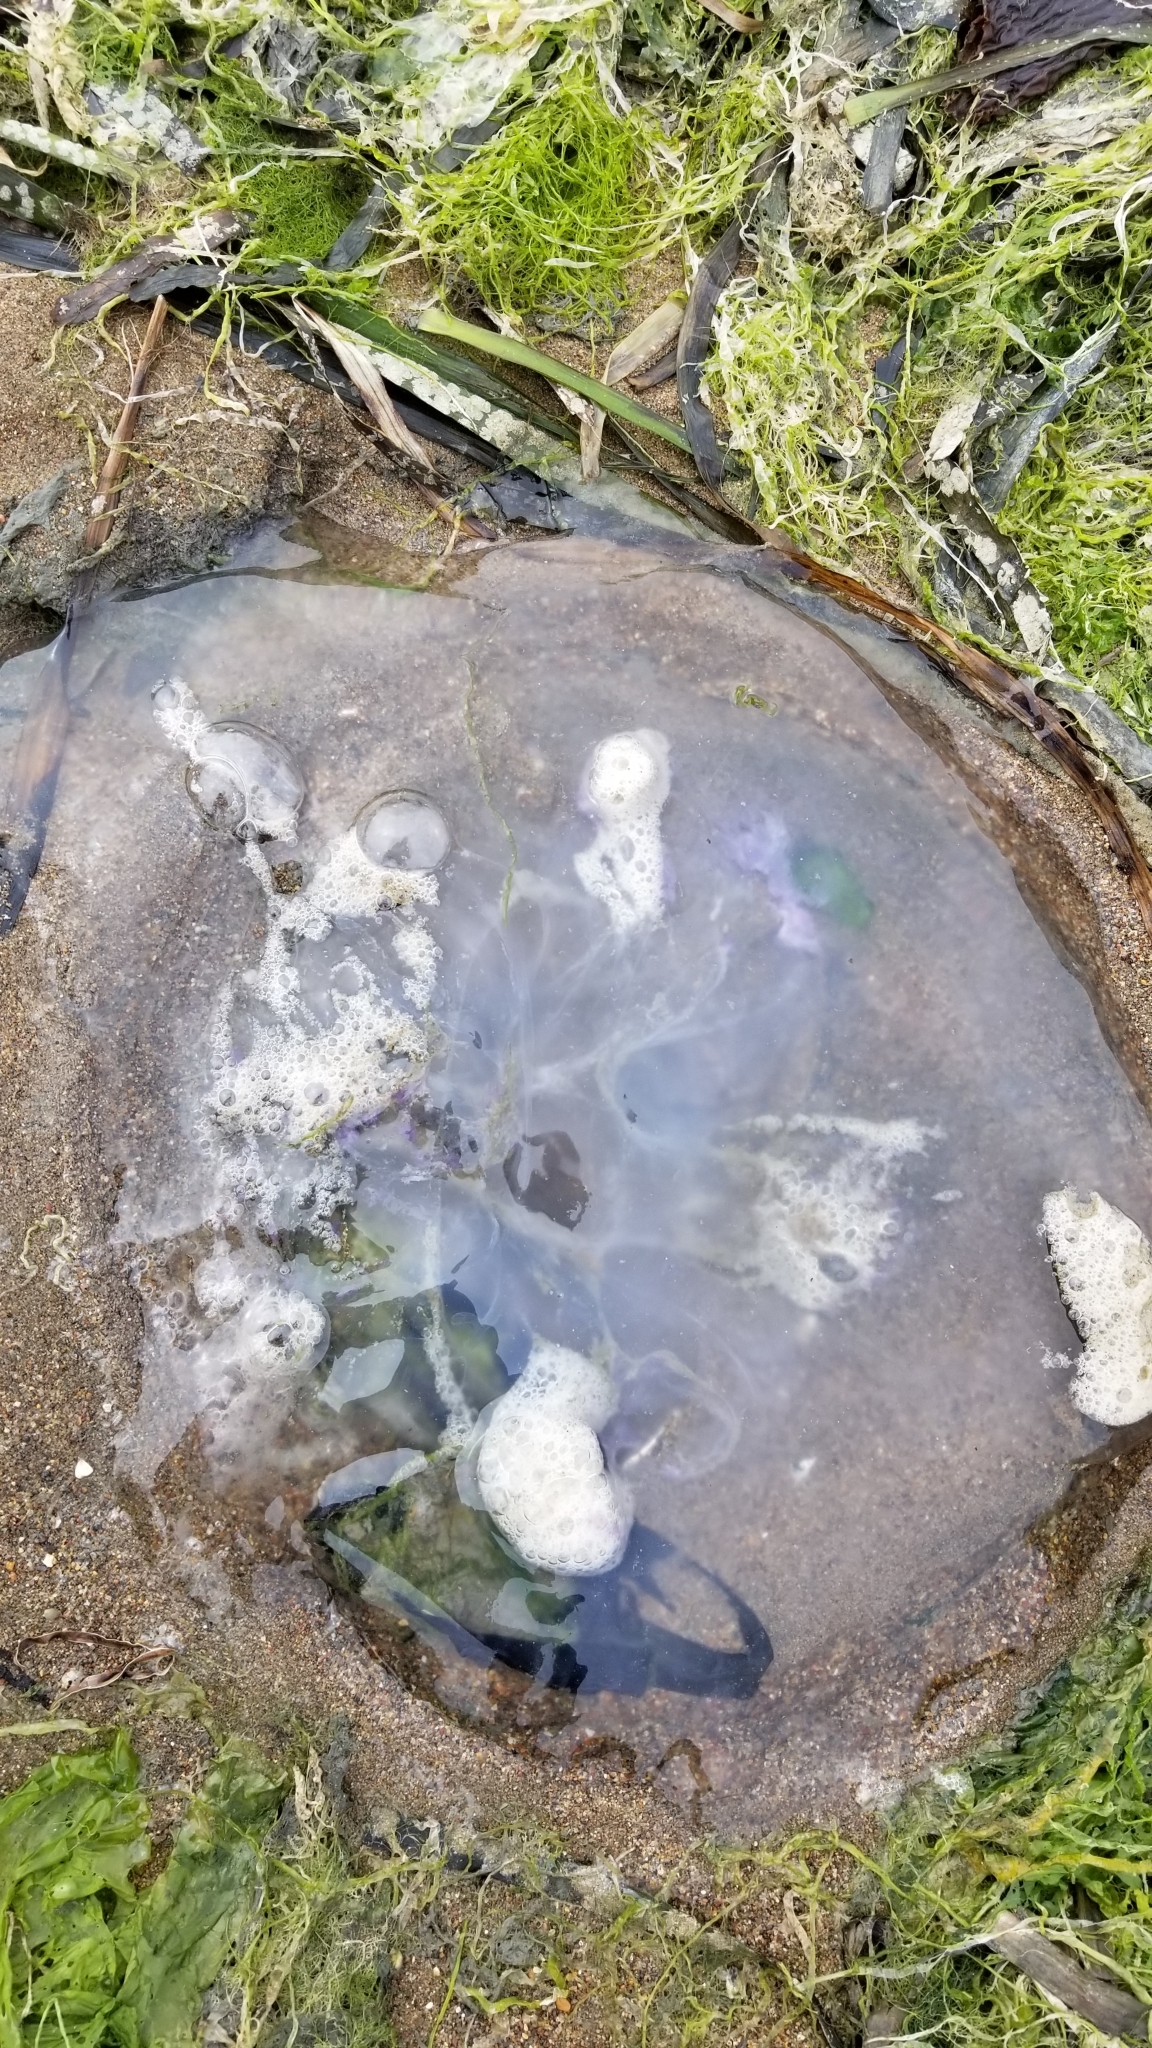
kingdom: Animalia
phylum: Cnidaria
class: Scyphozoa
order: Semaeostomeae
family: Ulmaridae
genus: Aurelia
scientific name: Aurelia labiata
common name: Pacific moon jelly
